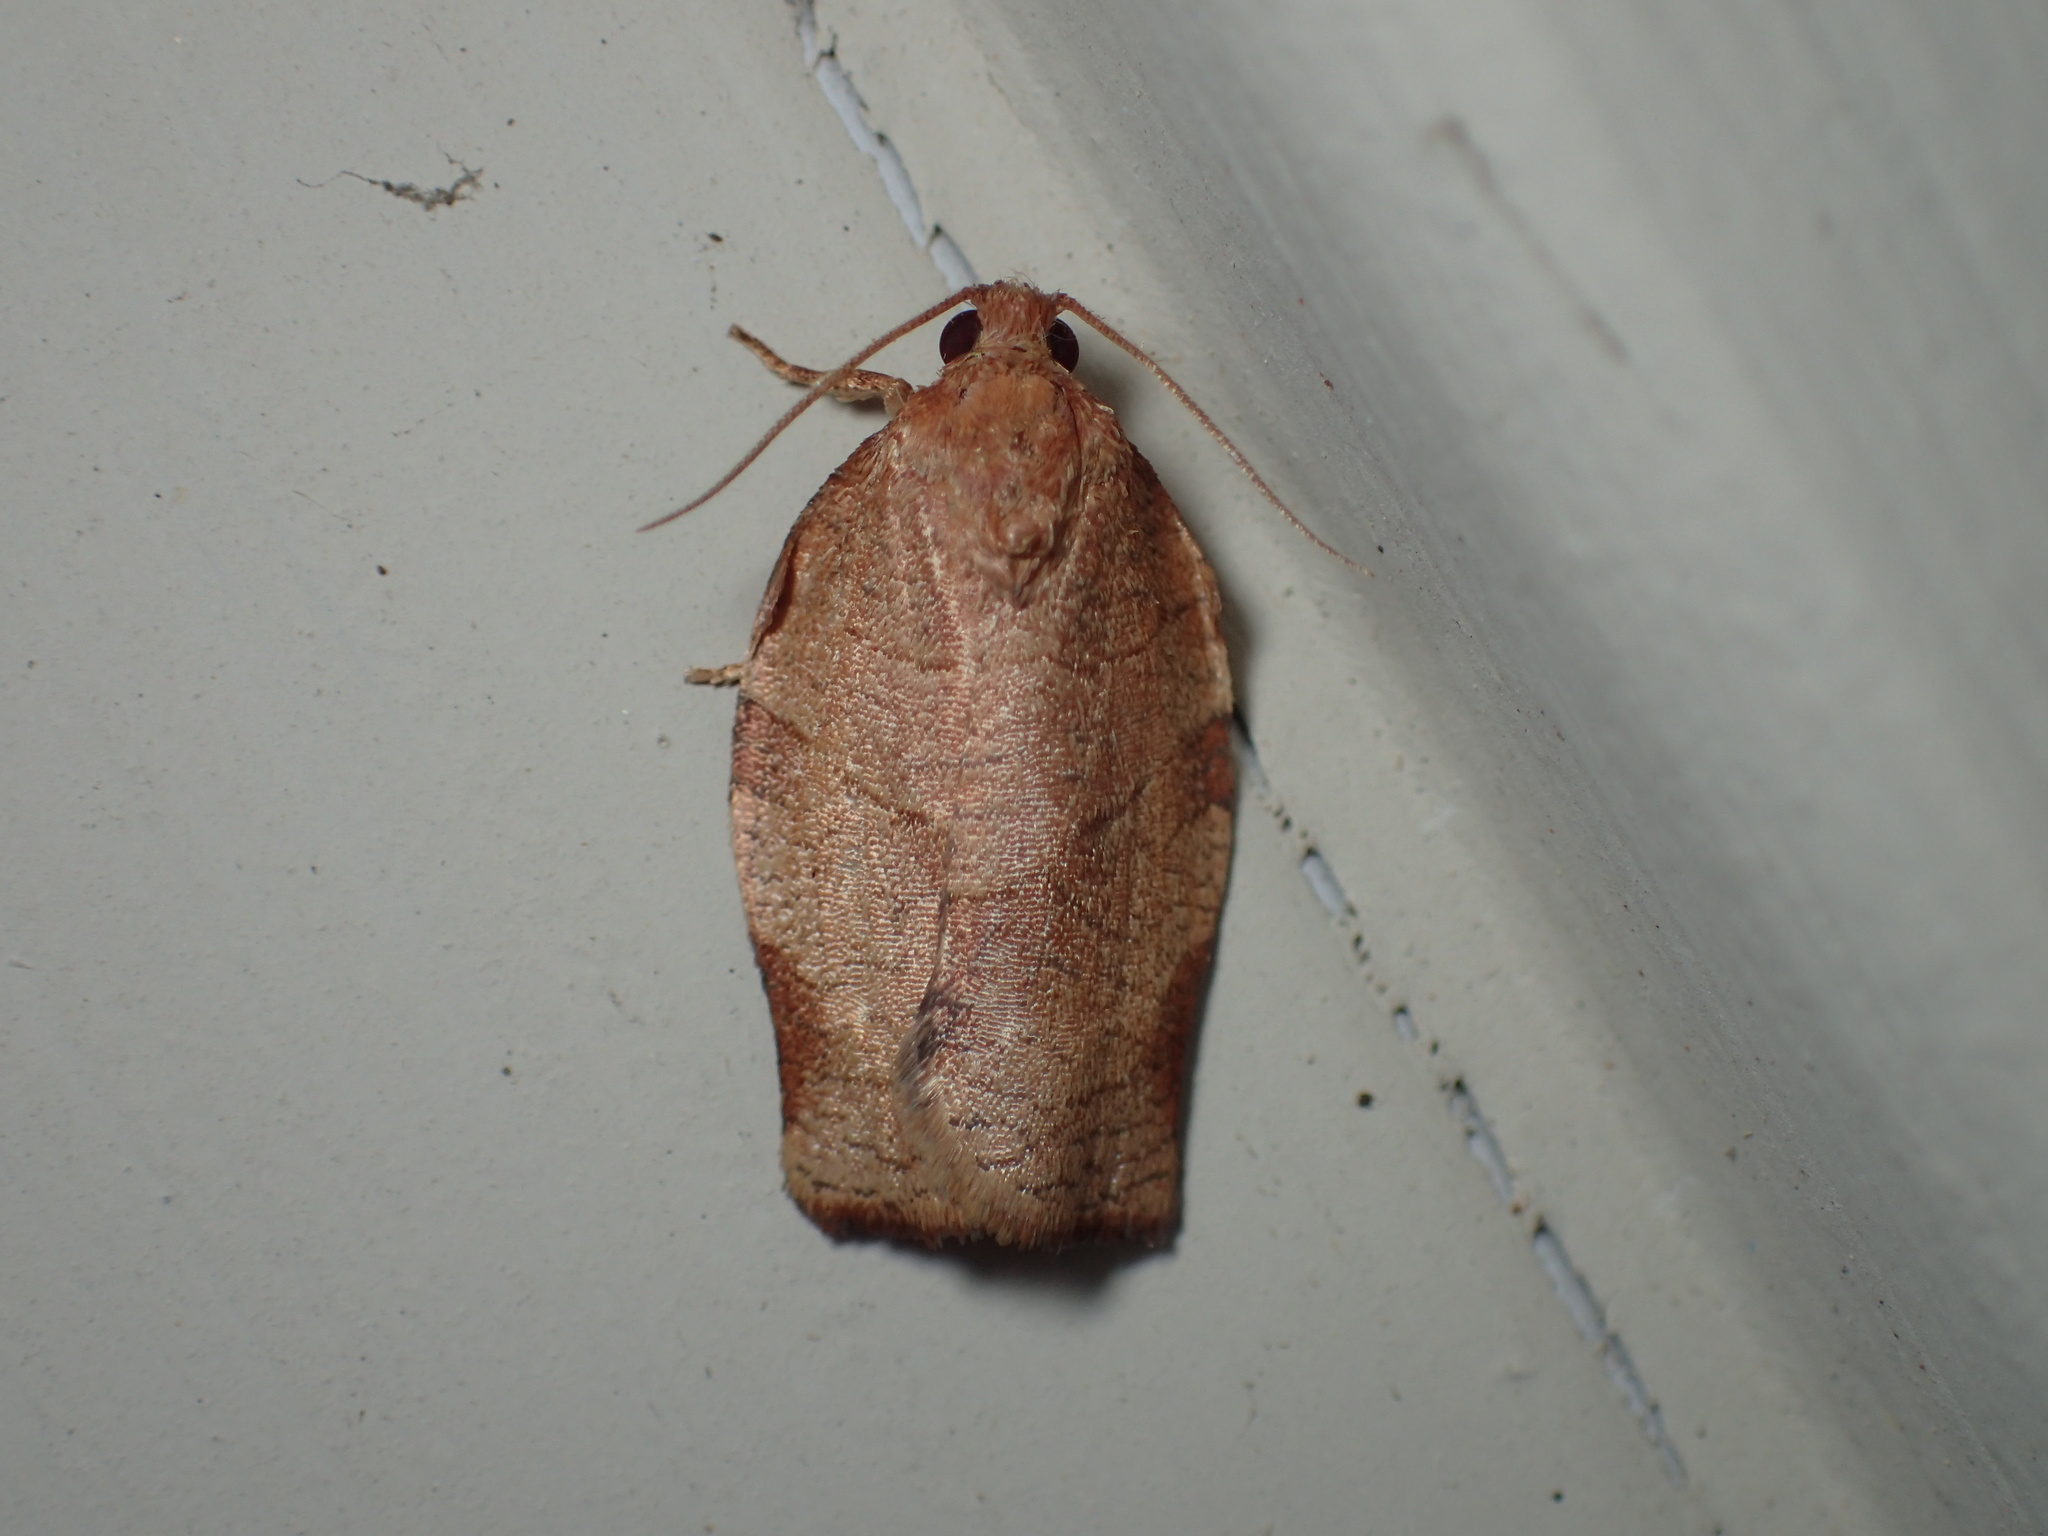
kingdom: Animalia
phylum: Arthropoda
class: Insecta
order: Lepidoptera
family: Tortricidae
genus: Choristoneura
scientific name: Choristoneura rosaceana
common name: Oblique-banded leafroller moth
